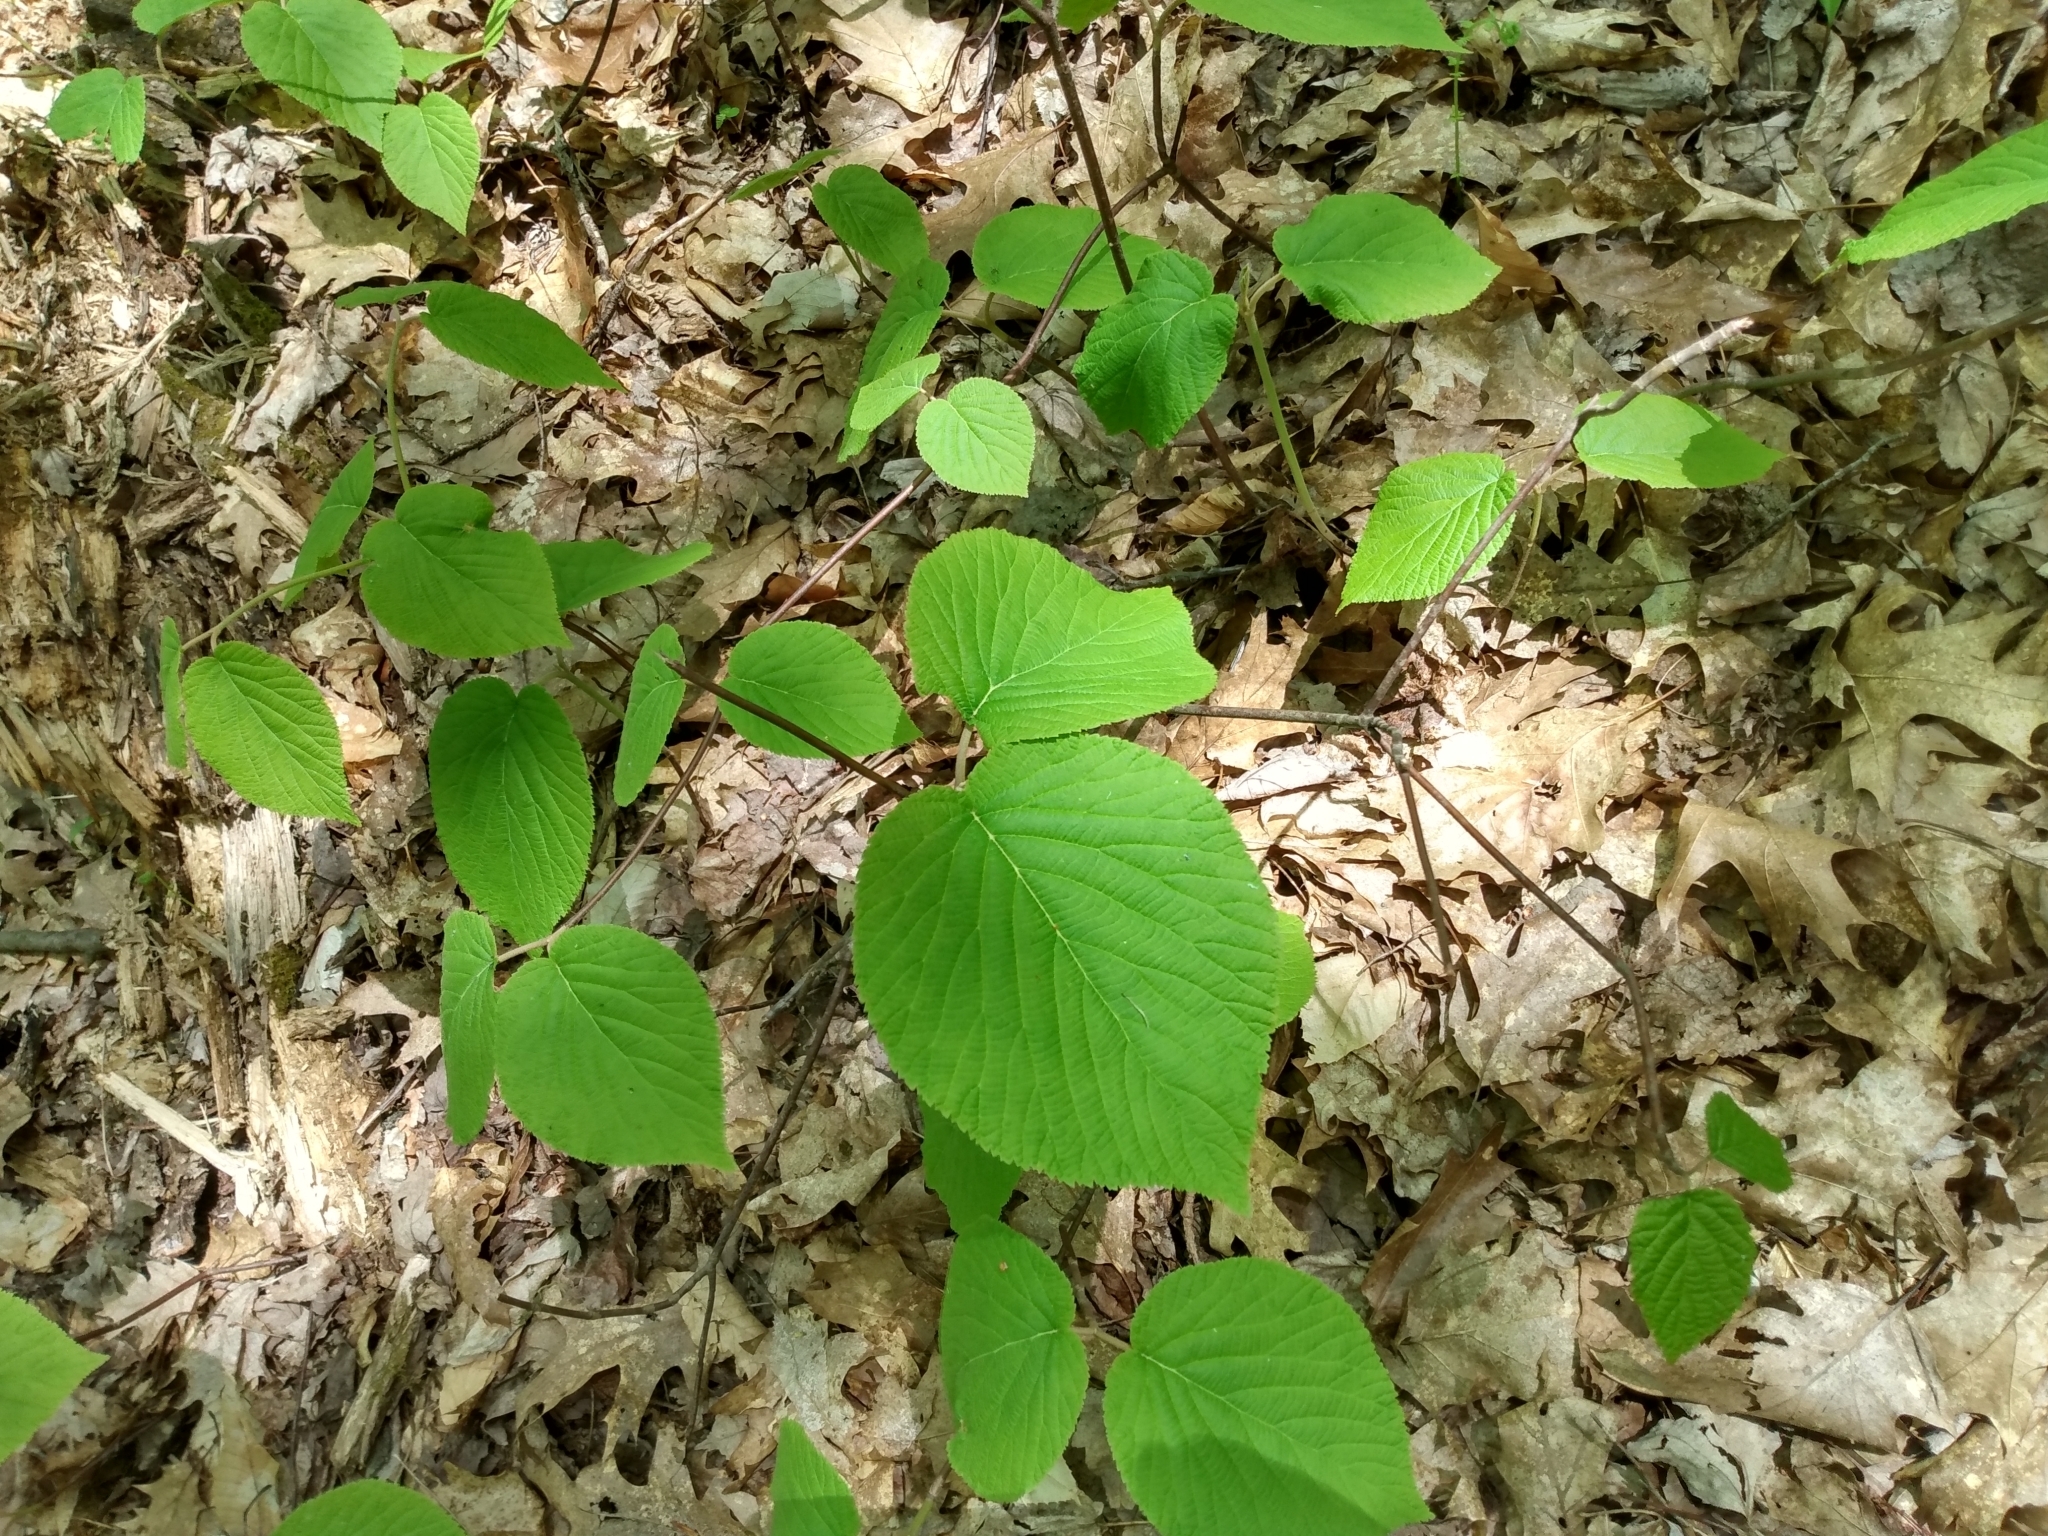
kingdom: Plantae
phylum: Tracheophyta
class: Magnoliopsida
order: Dipsacales
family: Viburnaceae
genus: Viburnum
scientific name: Viburnum lantanoides
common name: Hobblebush
